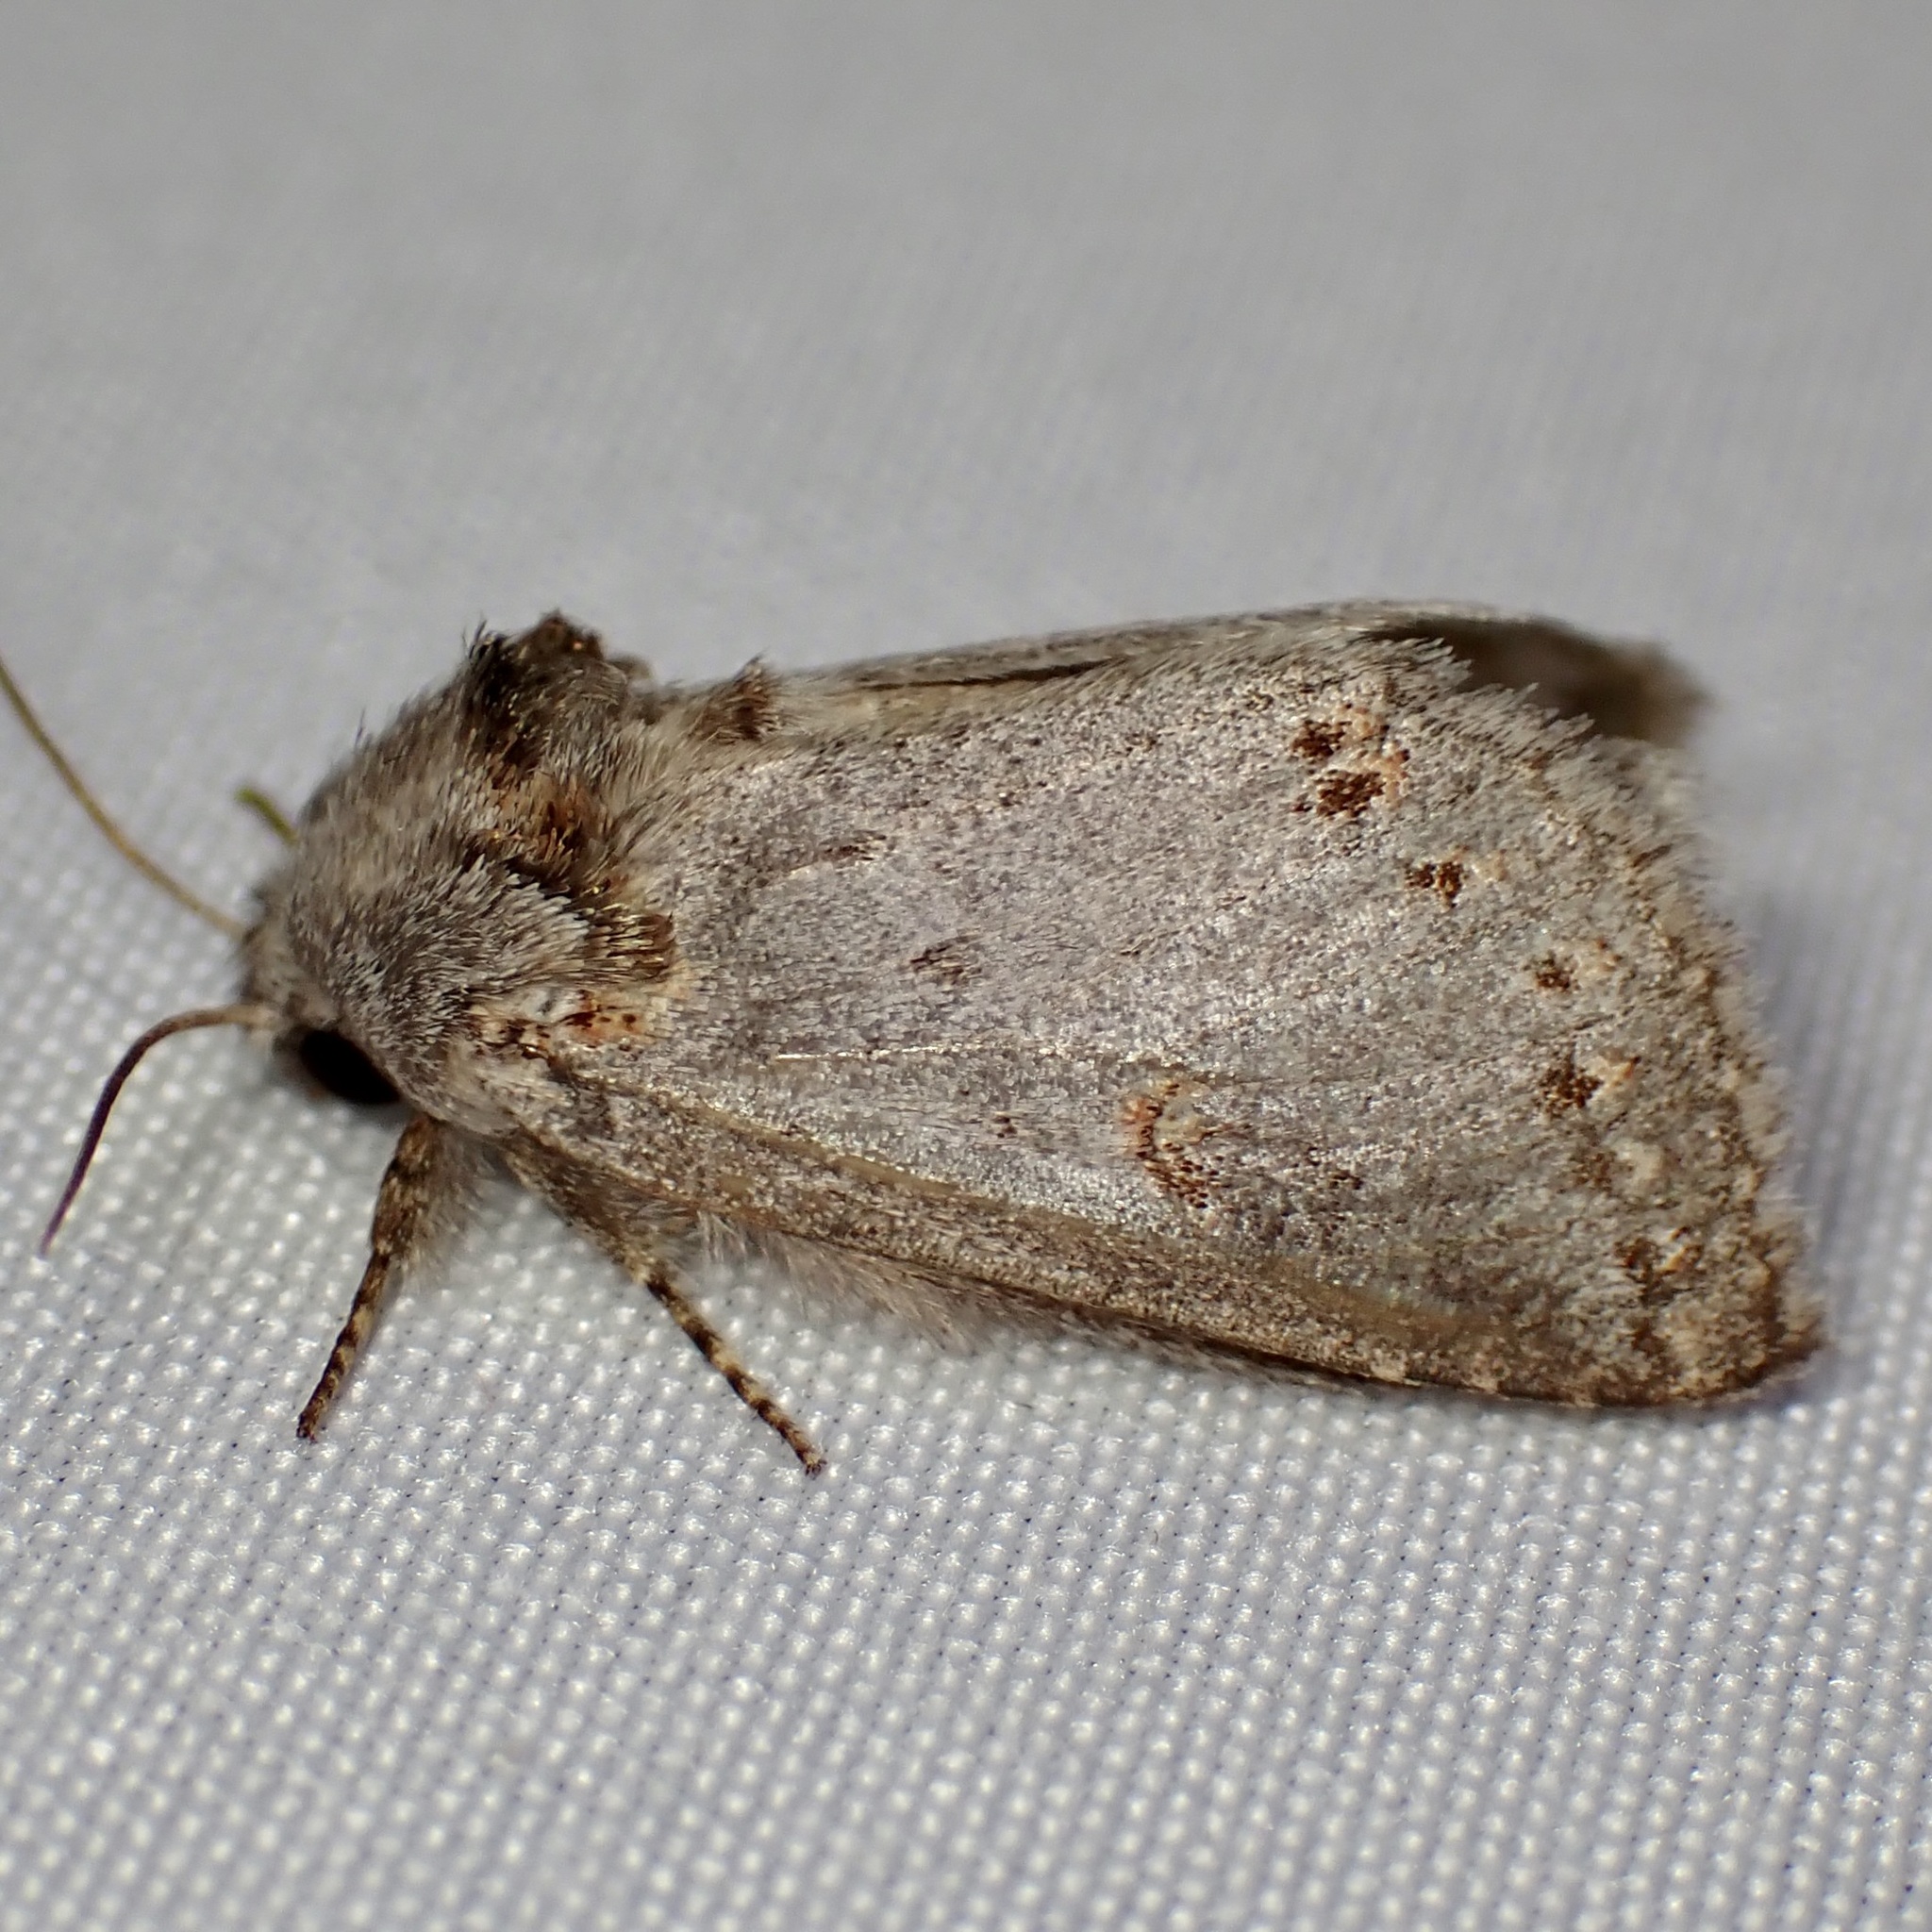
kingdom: Animalia
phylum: Arthropoda
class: Insecta
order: Lepidoptera
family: Notodontidae
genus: Theroa
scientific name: Theroa zethus
